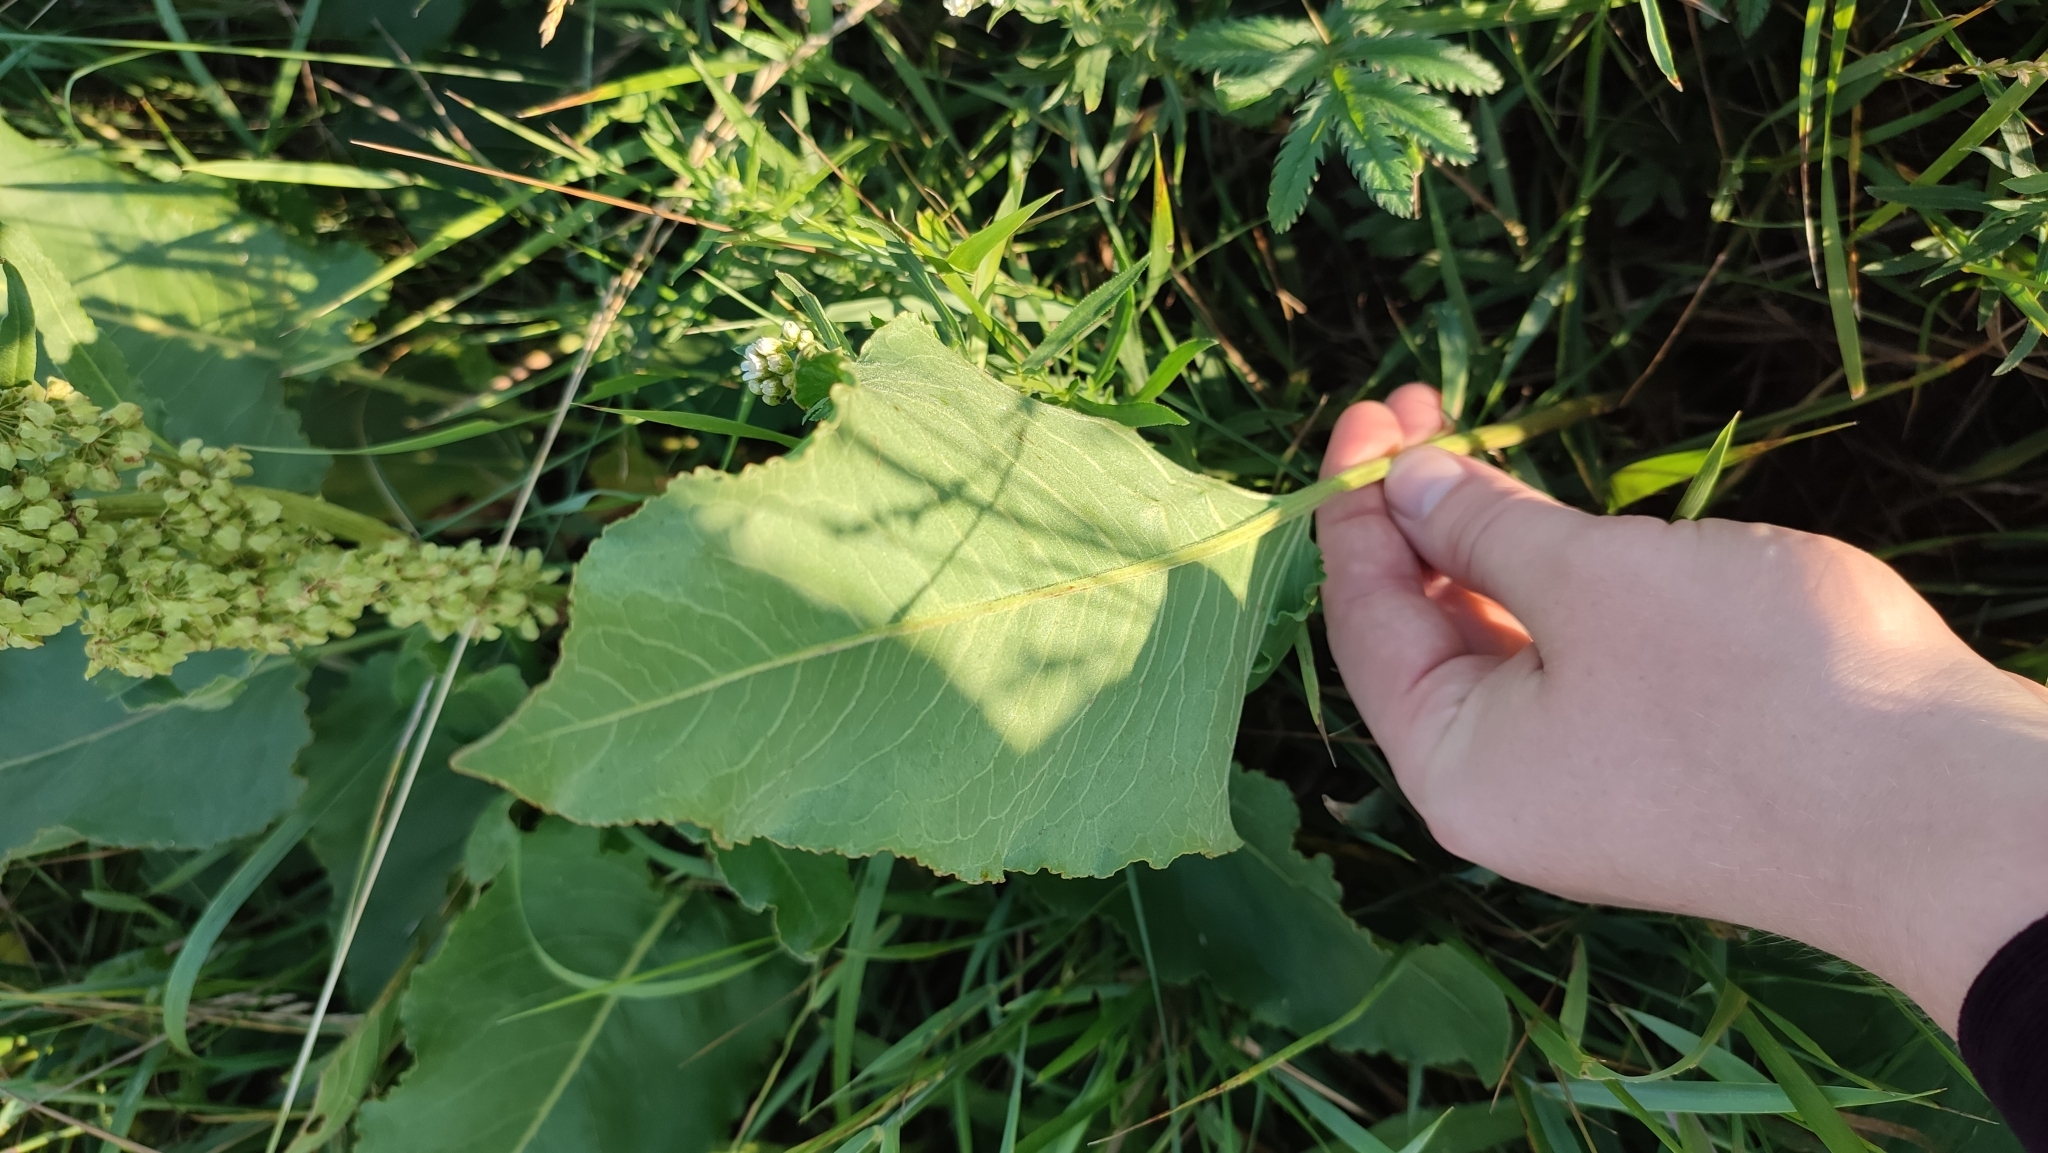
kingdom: Plantae
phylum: Tracheophyta
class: Magnoliopsida
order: Caryophyllales
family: Polygonaceae
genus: Rumex
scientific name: Rumex aquaticus
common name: Scottish dock
